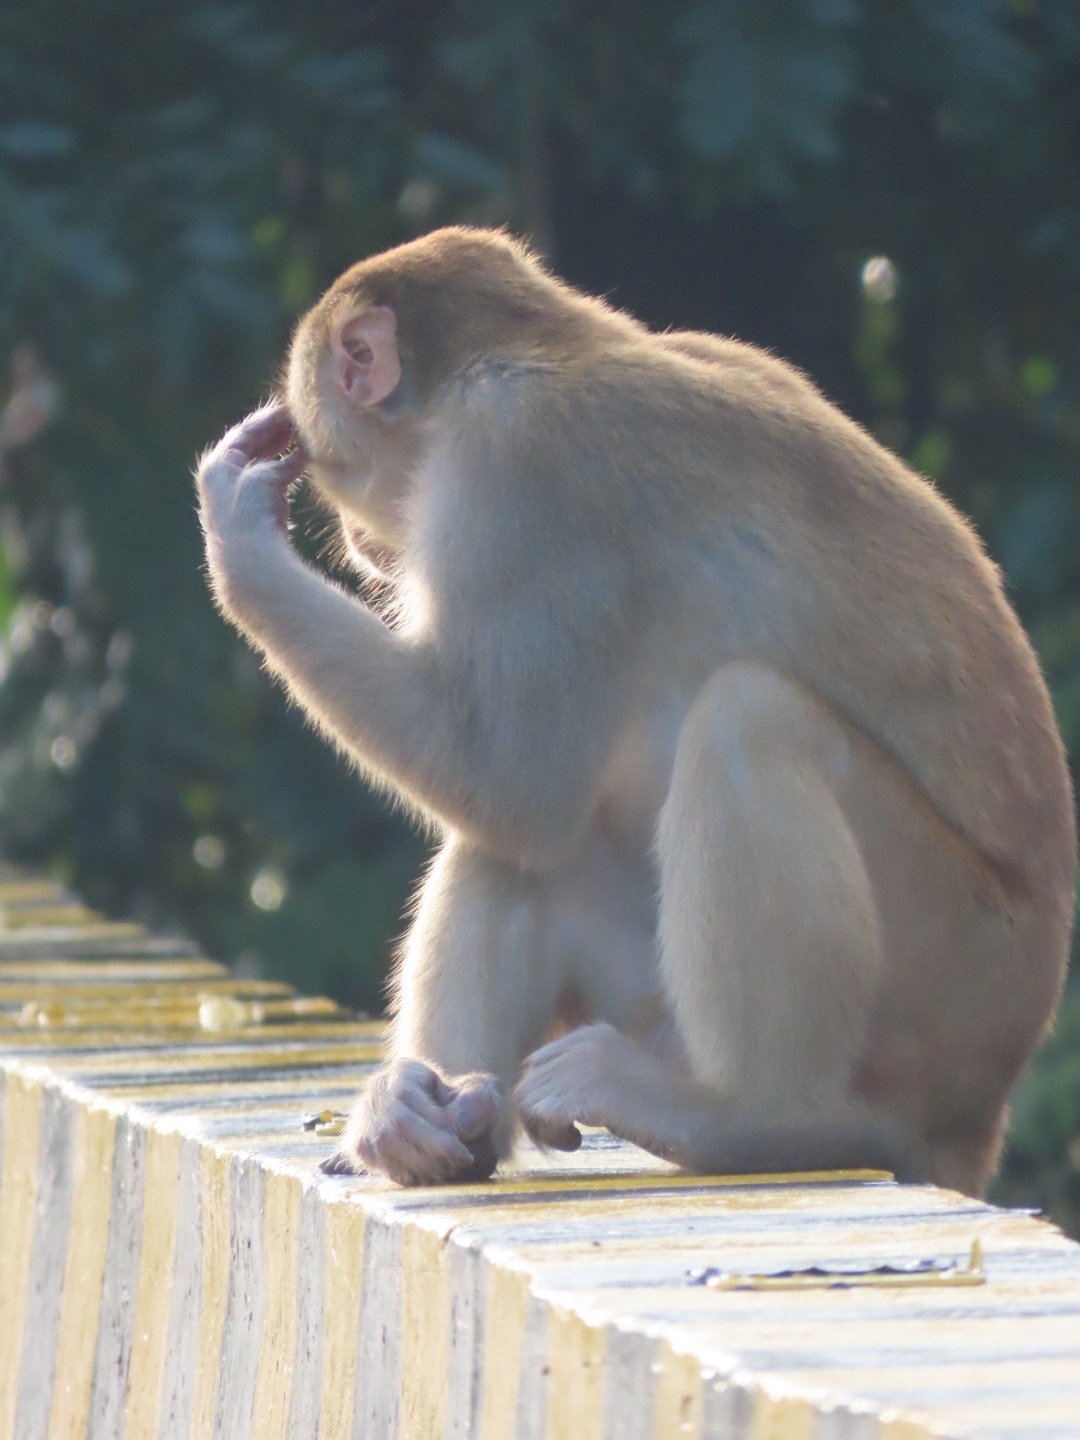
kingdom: Animalia
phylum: Chordata
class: Mammalia
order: Primates
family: Cercopithecidae
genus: Macaca
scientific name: Macaca mulatta
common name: Rhesus monkey
